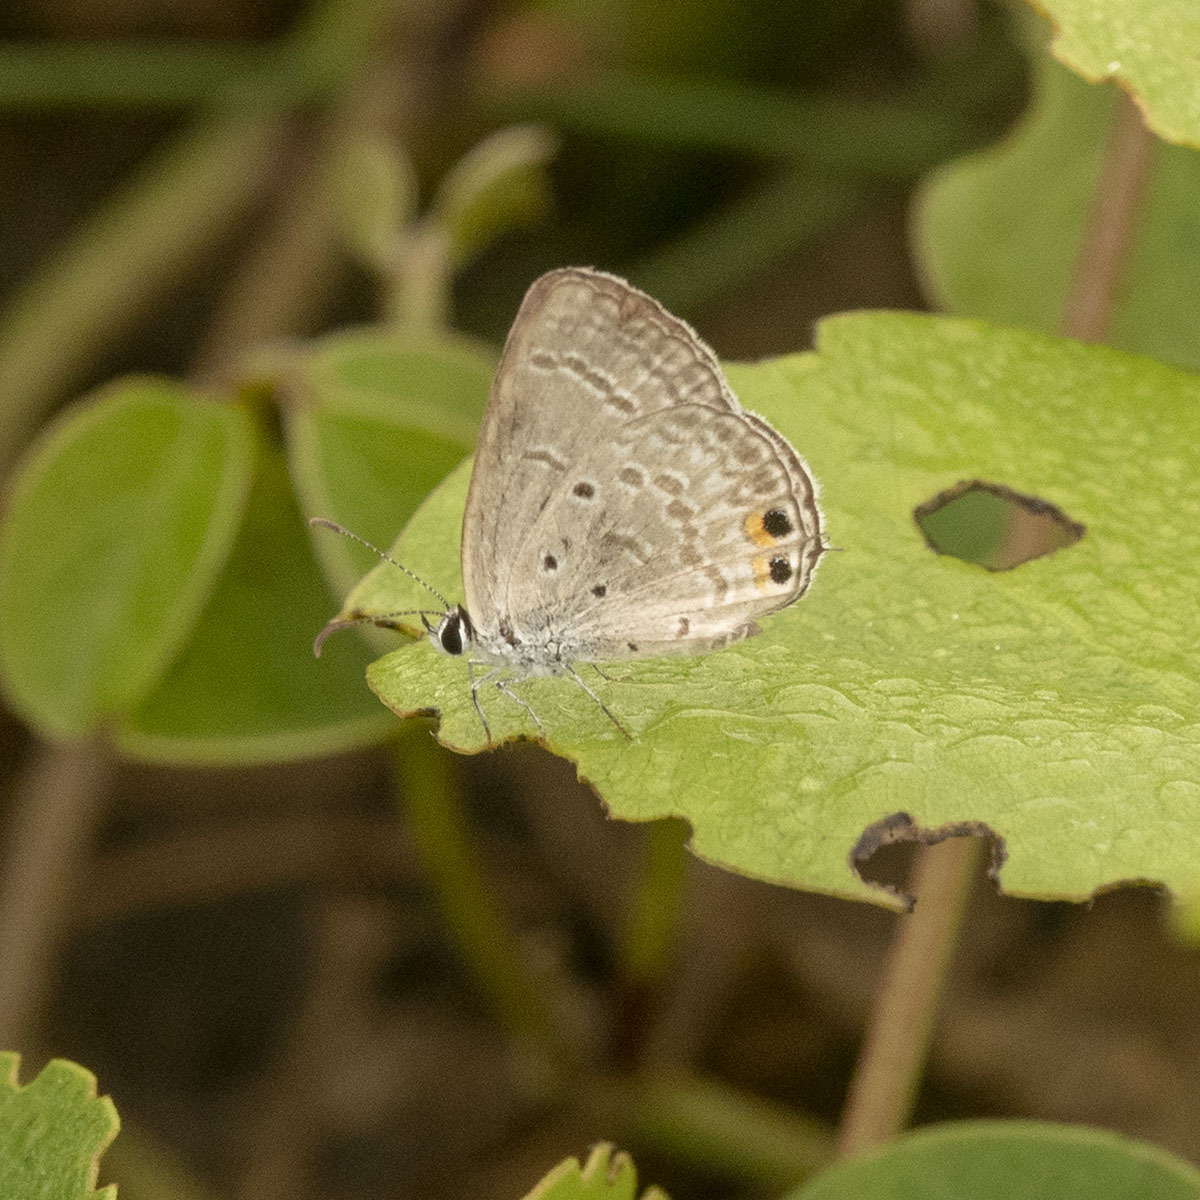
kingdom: Animalia
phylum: Arthropoda
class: Insecta
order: Lepidoptera
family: Lycaenidae
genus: Euchrysops
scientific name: Euchrysops cnejus
